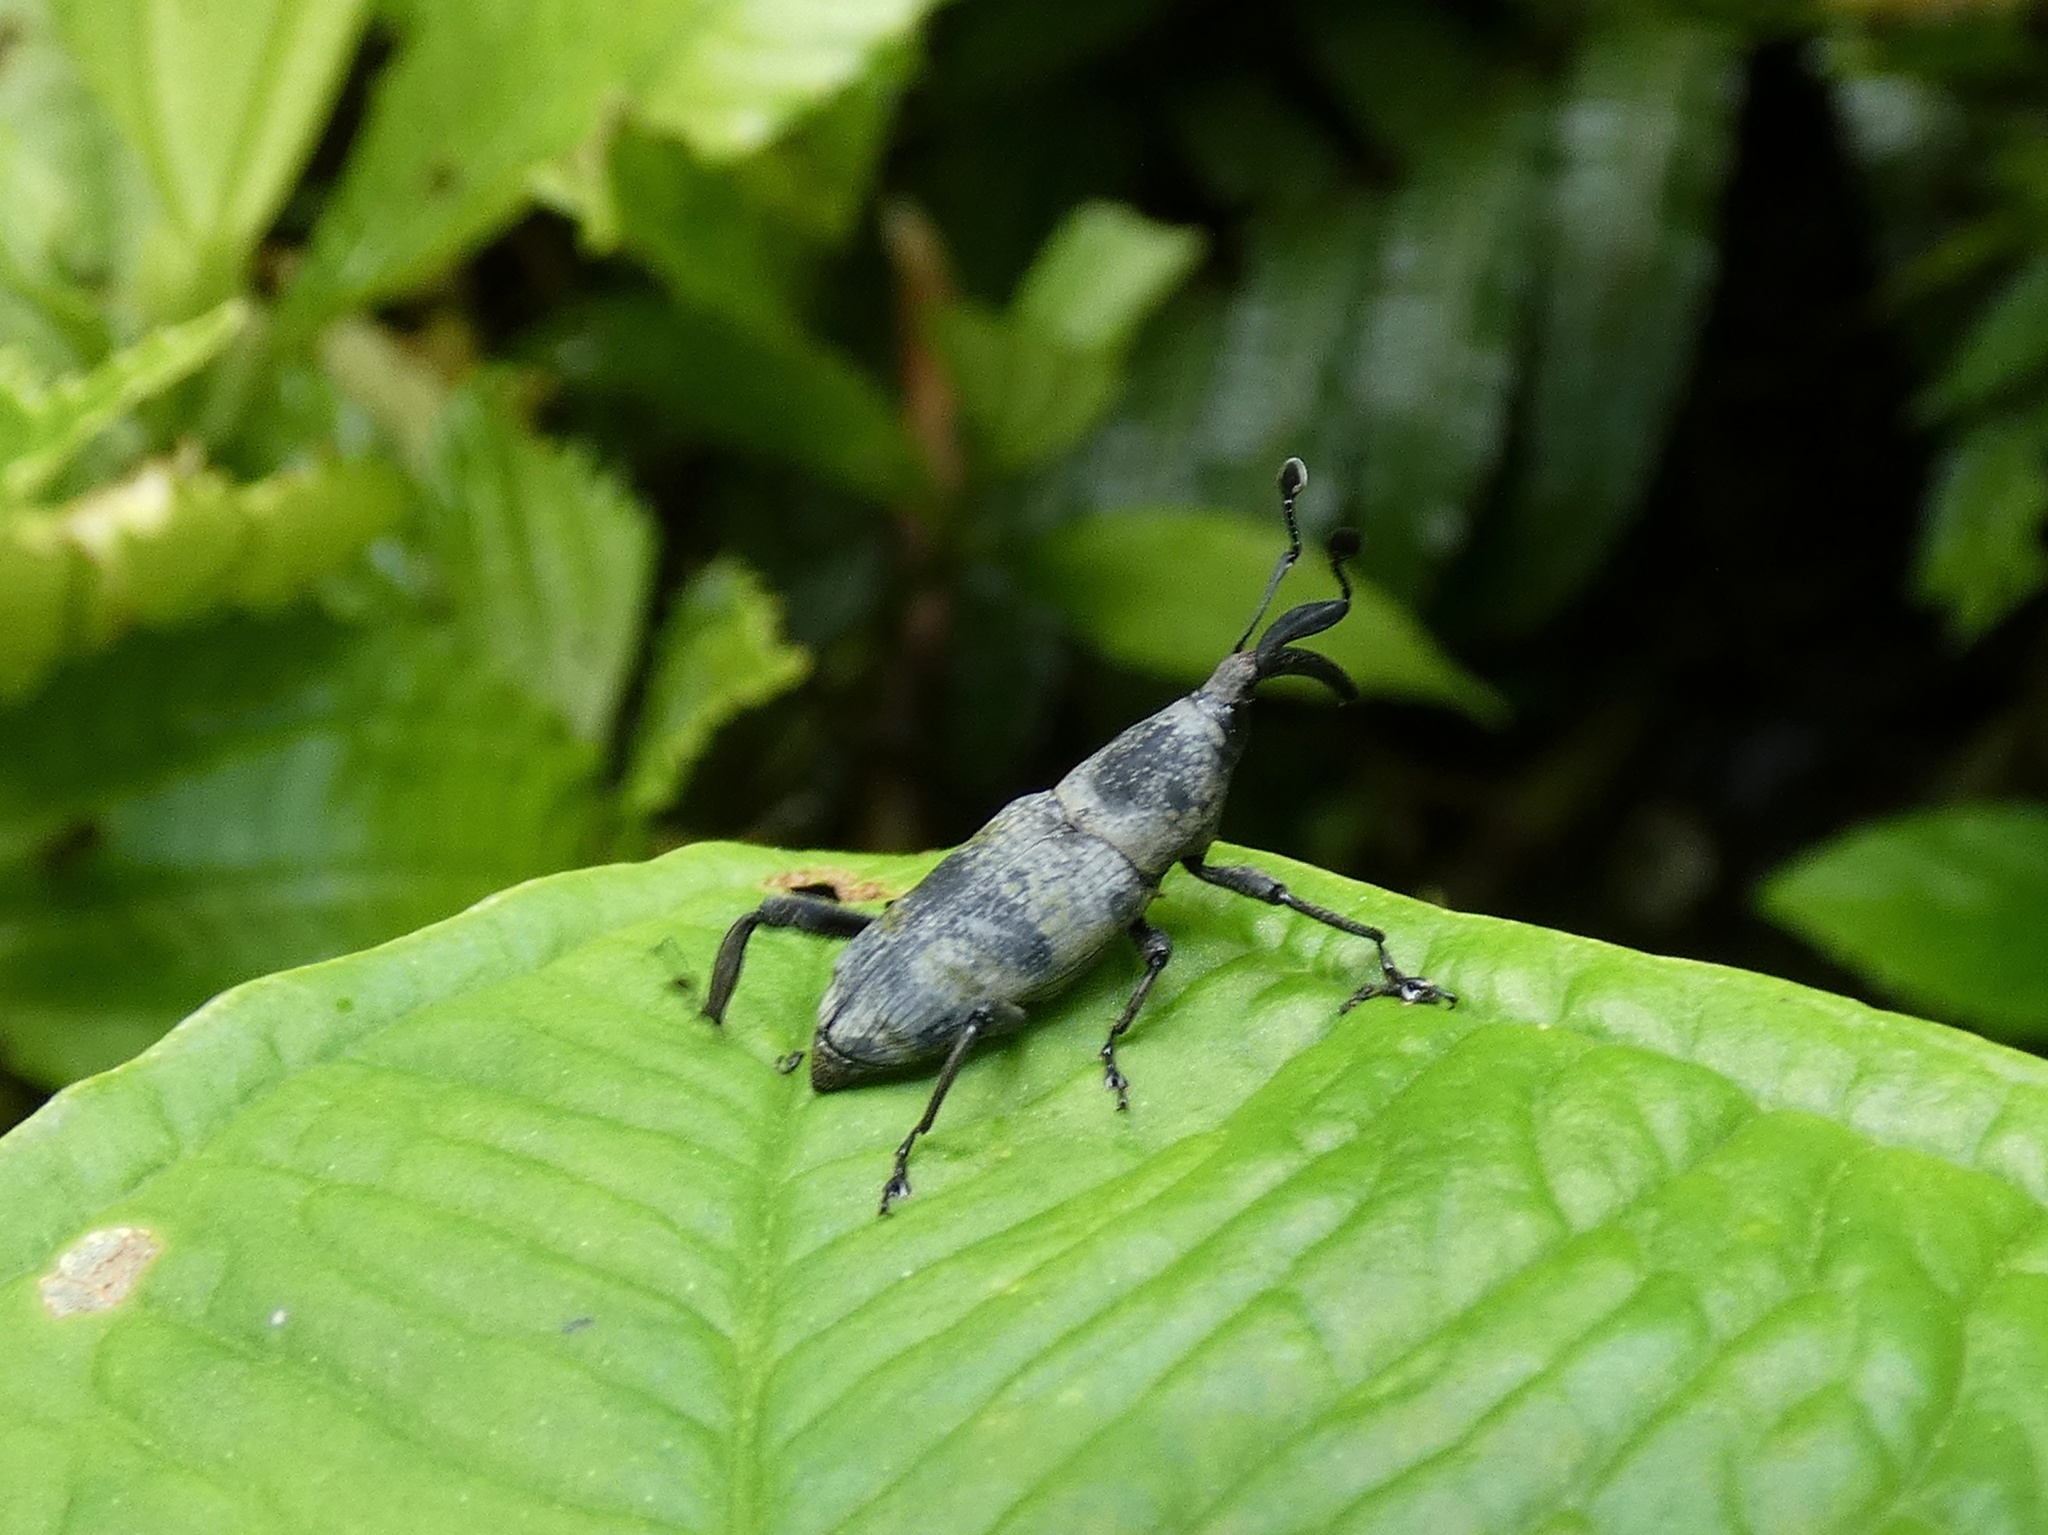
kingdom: Animalia
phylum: Arthropoda
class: Insecta
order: Coleoptera
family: Dryophthoridae
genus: Rhodobaenus
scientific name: Rhodobaenus
